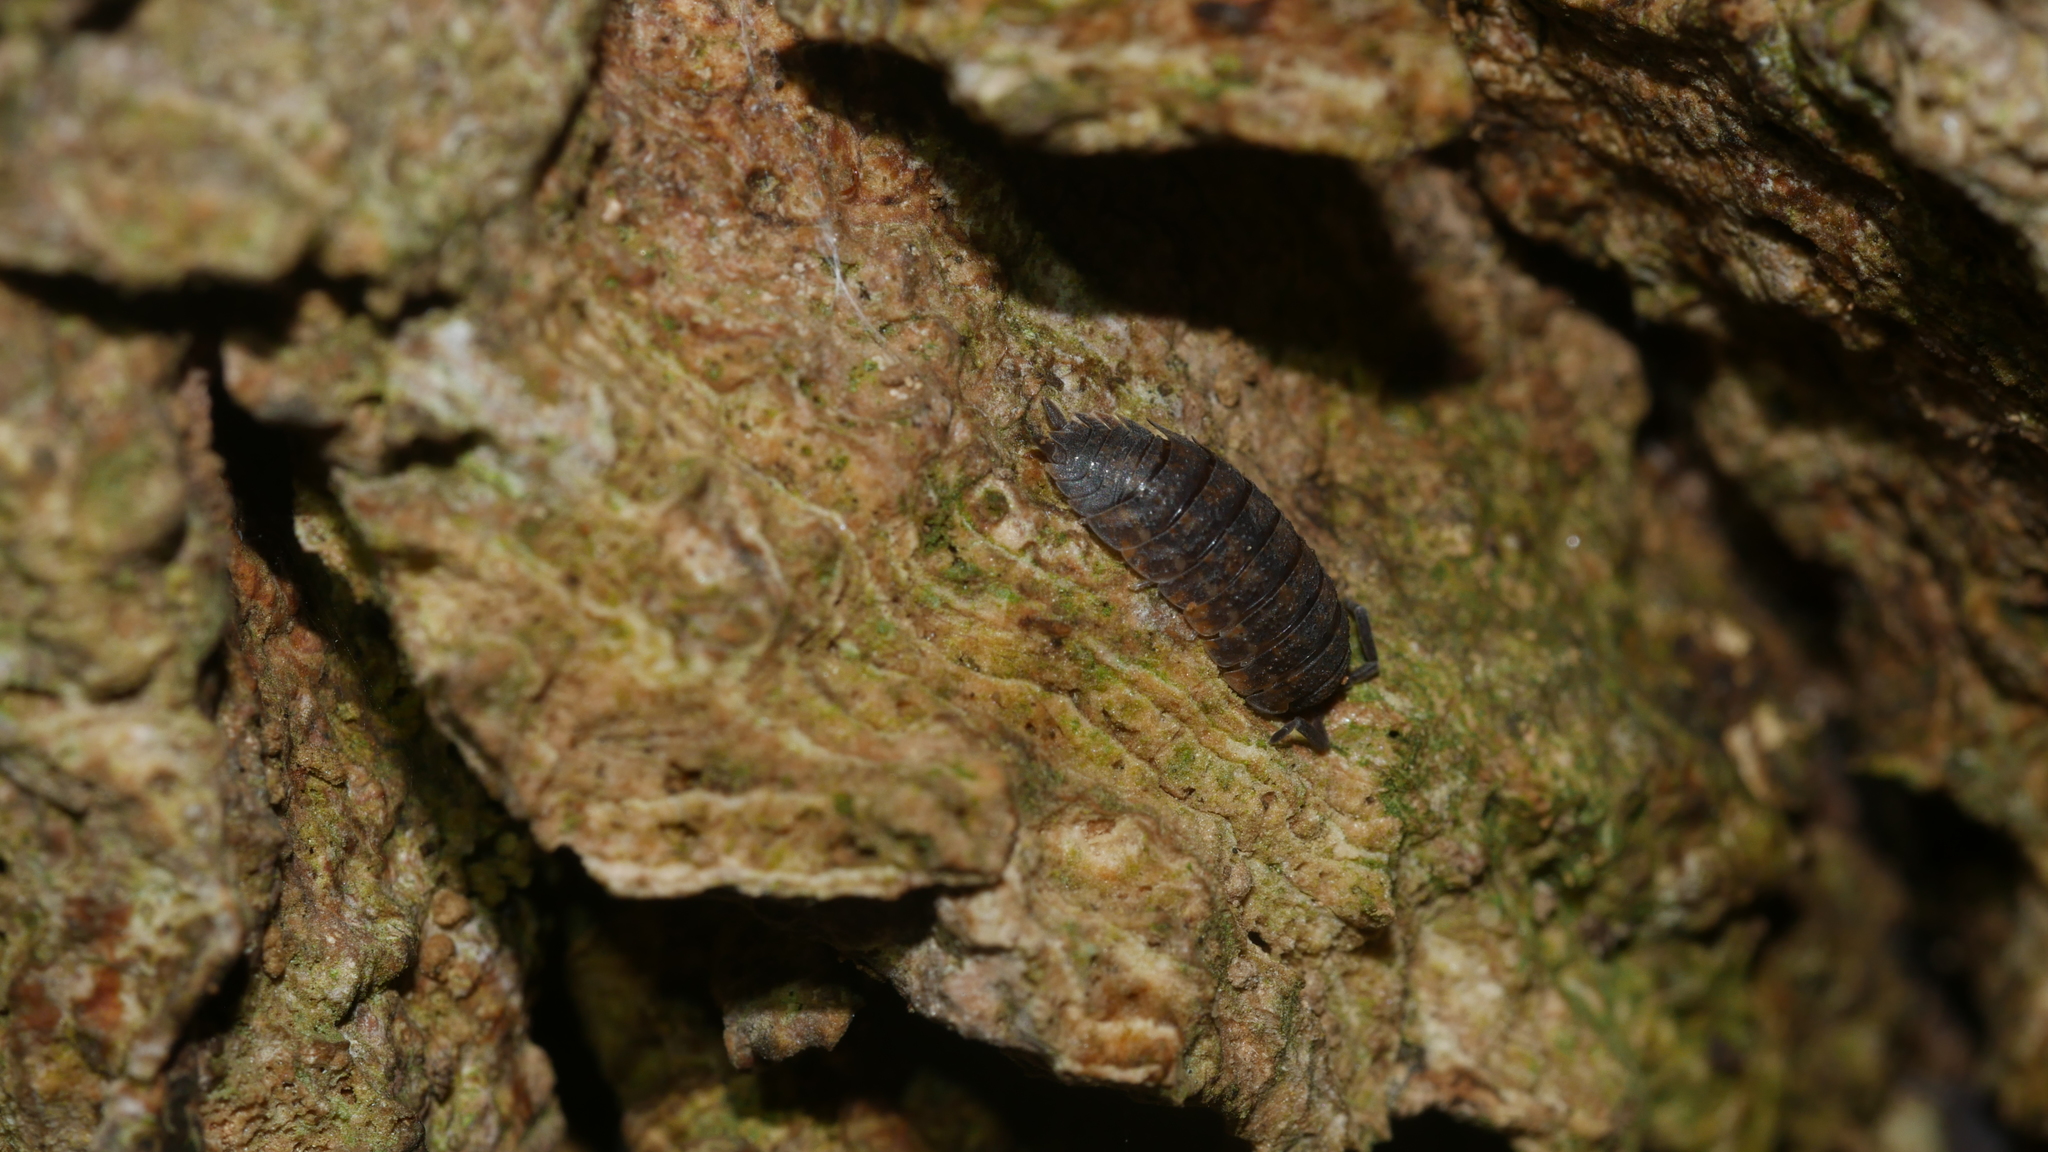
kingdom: Animalia
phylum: Arthropoda
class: Malacostraca
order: Isopoda
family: Porcellionidae
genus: Porcellio
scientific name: Porcellio scaber
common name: Common rough woodlouse
